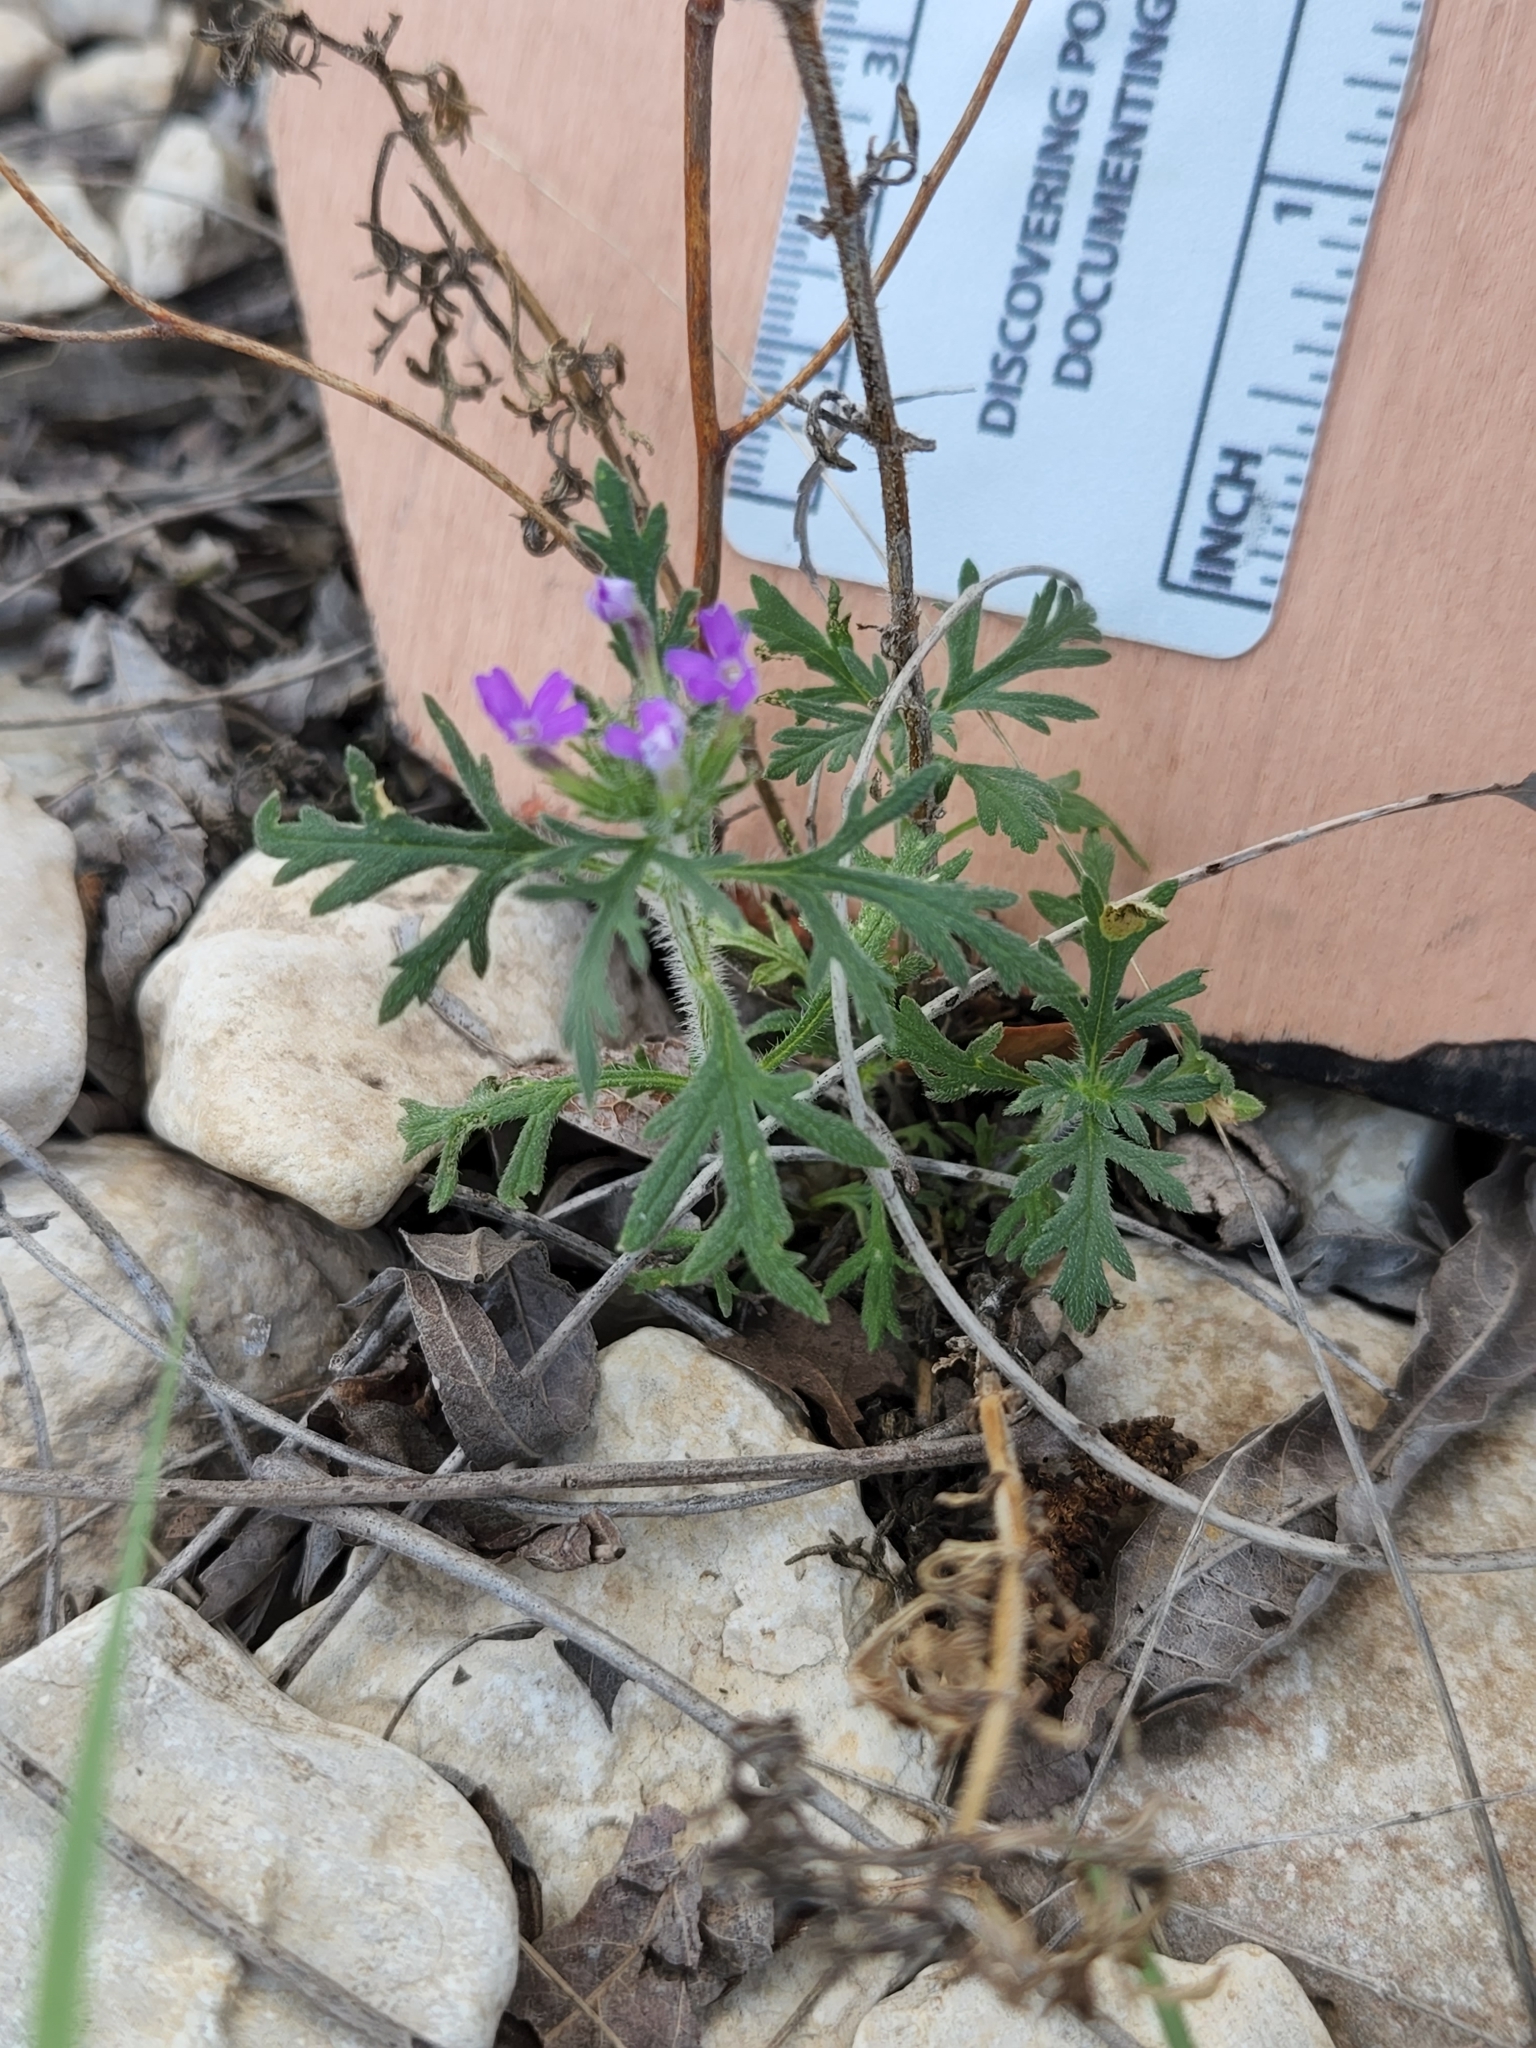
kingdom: Plantae
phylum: Tracheophyta
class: Magnoliopsida
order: Lamiales
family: Verbenaceae
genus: Verbena
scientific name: Verbena bipinnatifida
